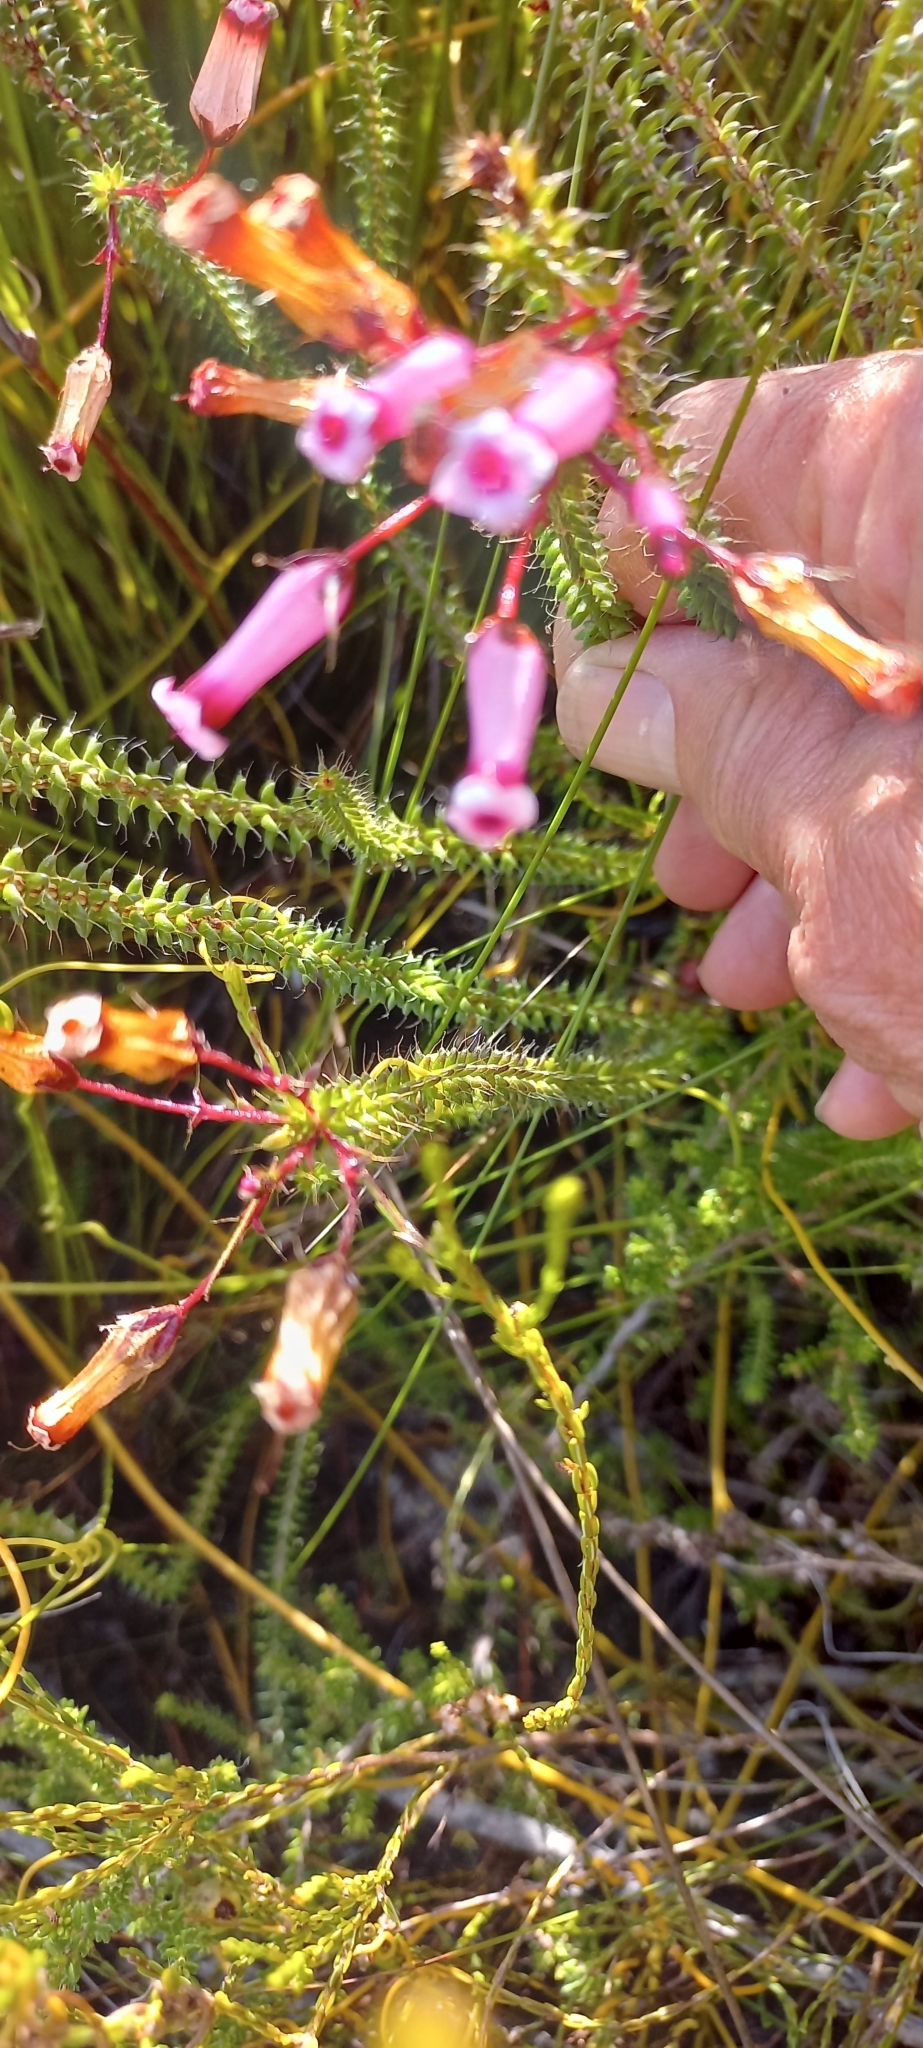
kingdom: Plantae
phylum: Tracheophyta
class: Magnoliopsida
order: Ericales
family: Ericaceae
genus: Erica
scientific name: Erica retorta
